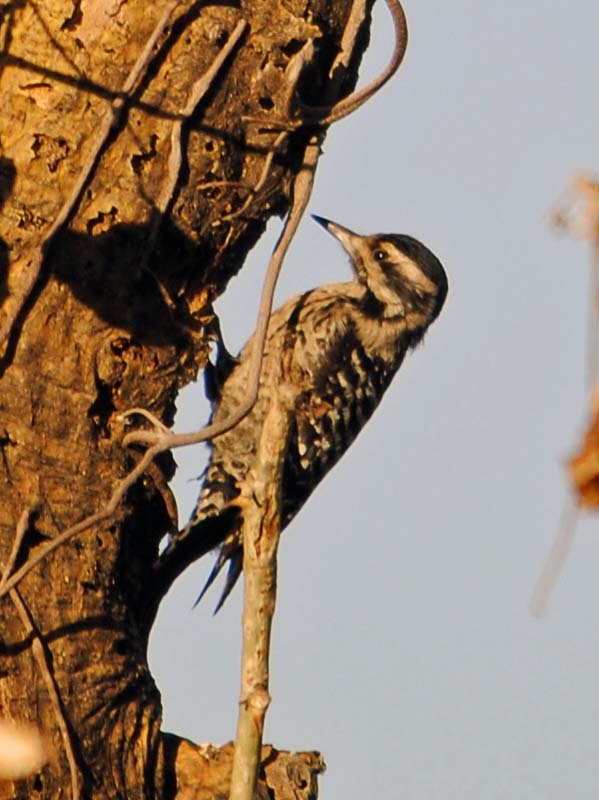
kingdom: Animalia
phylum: Chordata
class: Aves
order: Piciformes
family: Picidae
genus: Dryobates
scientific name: Dryobates scalaris
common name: Ladder-backed woodpecker
